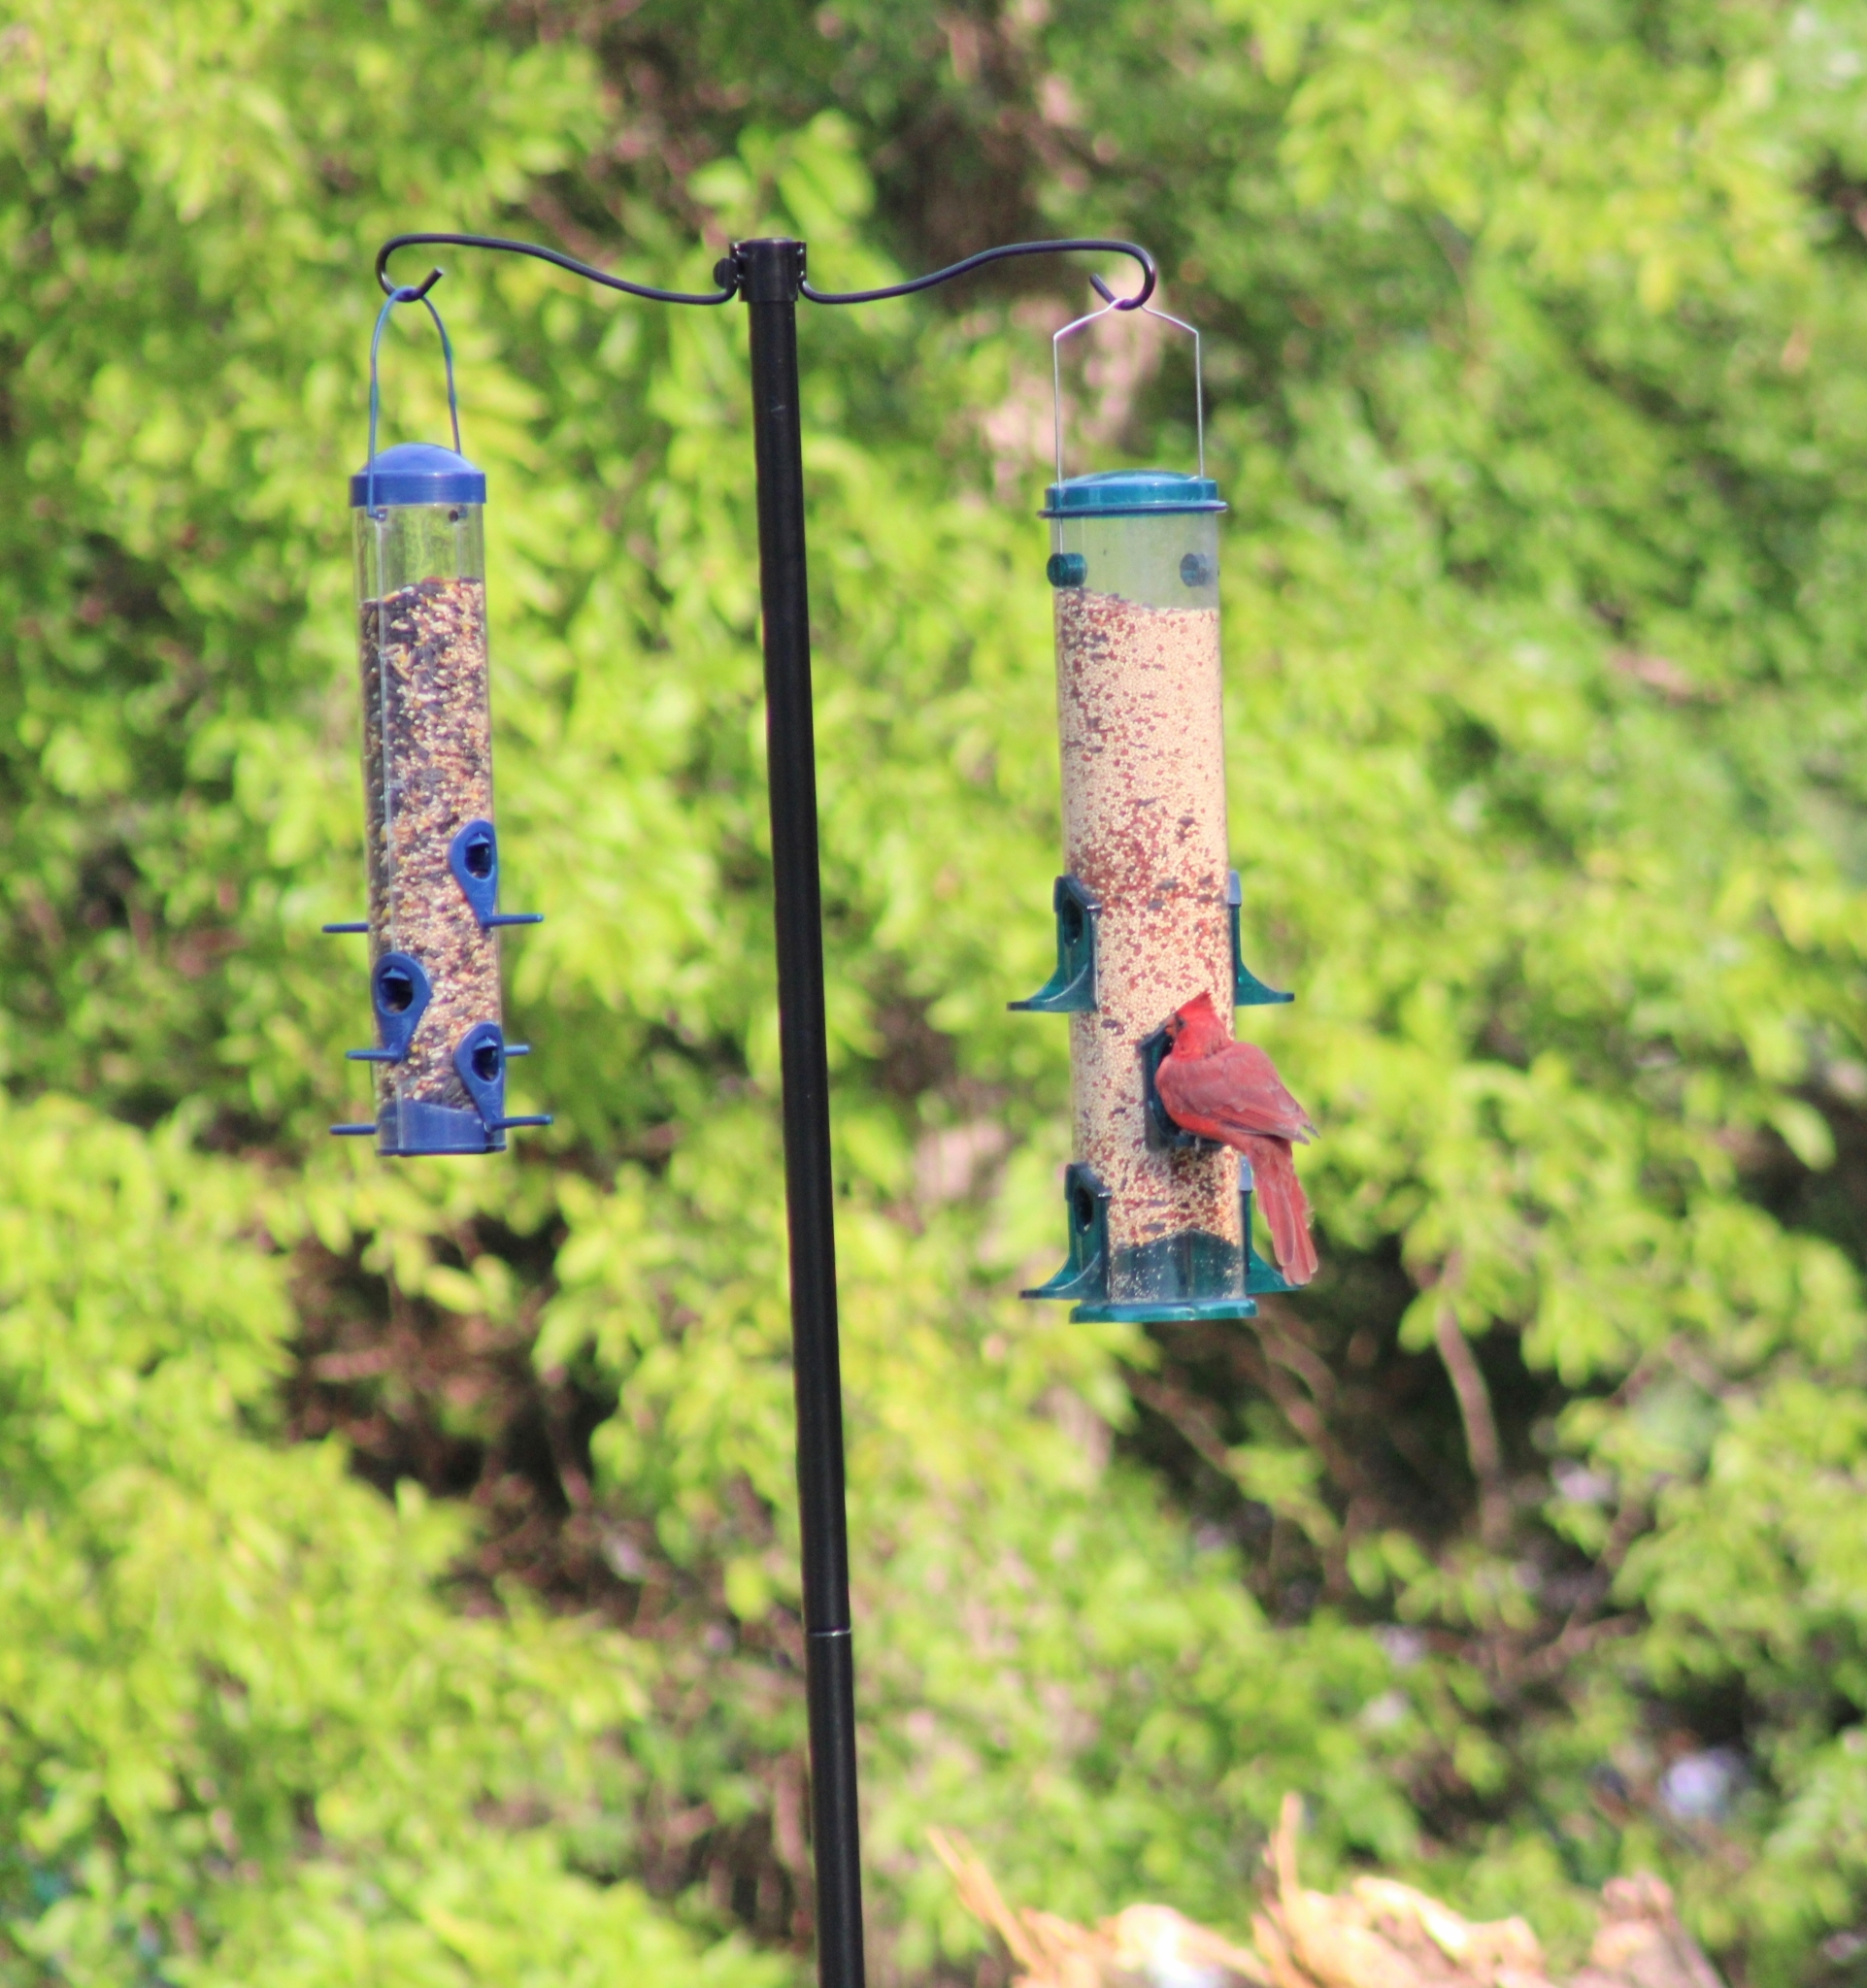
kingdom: Animalia
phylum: Chordata
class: Aves
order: Passeriformes
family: Cardinalidae
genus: Cardinalis
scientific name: Cardinalis cardinalis
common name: Northern cardinal
